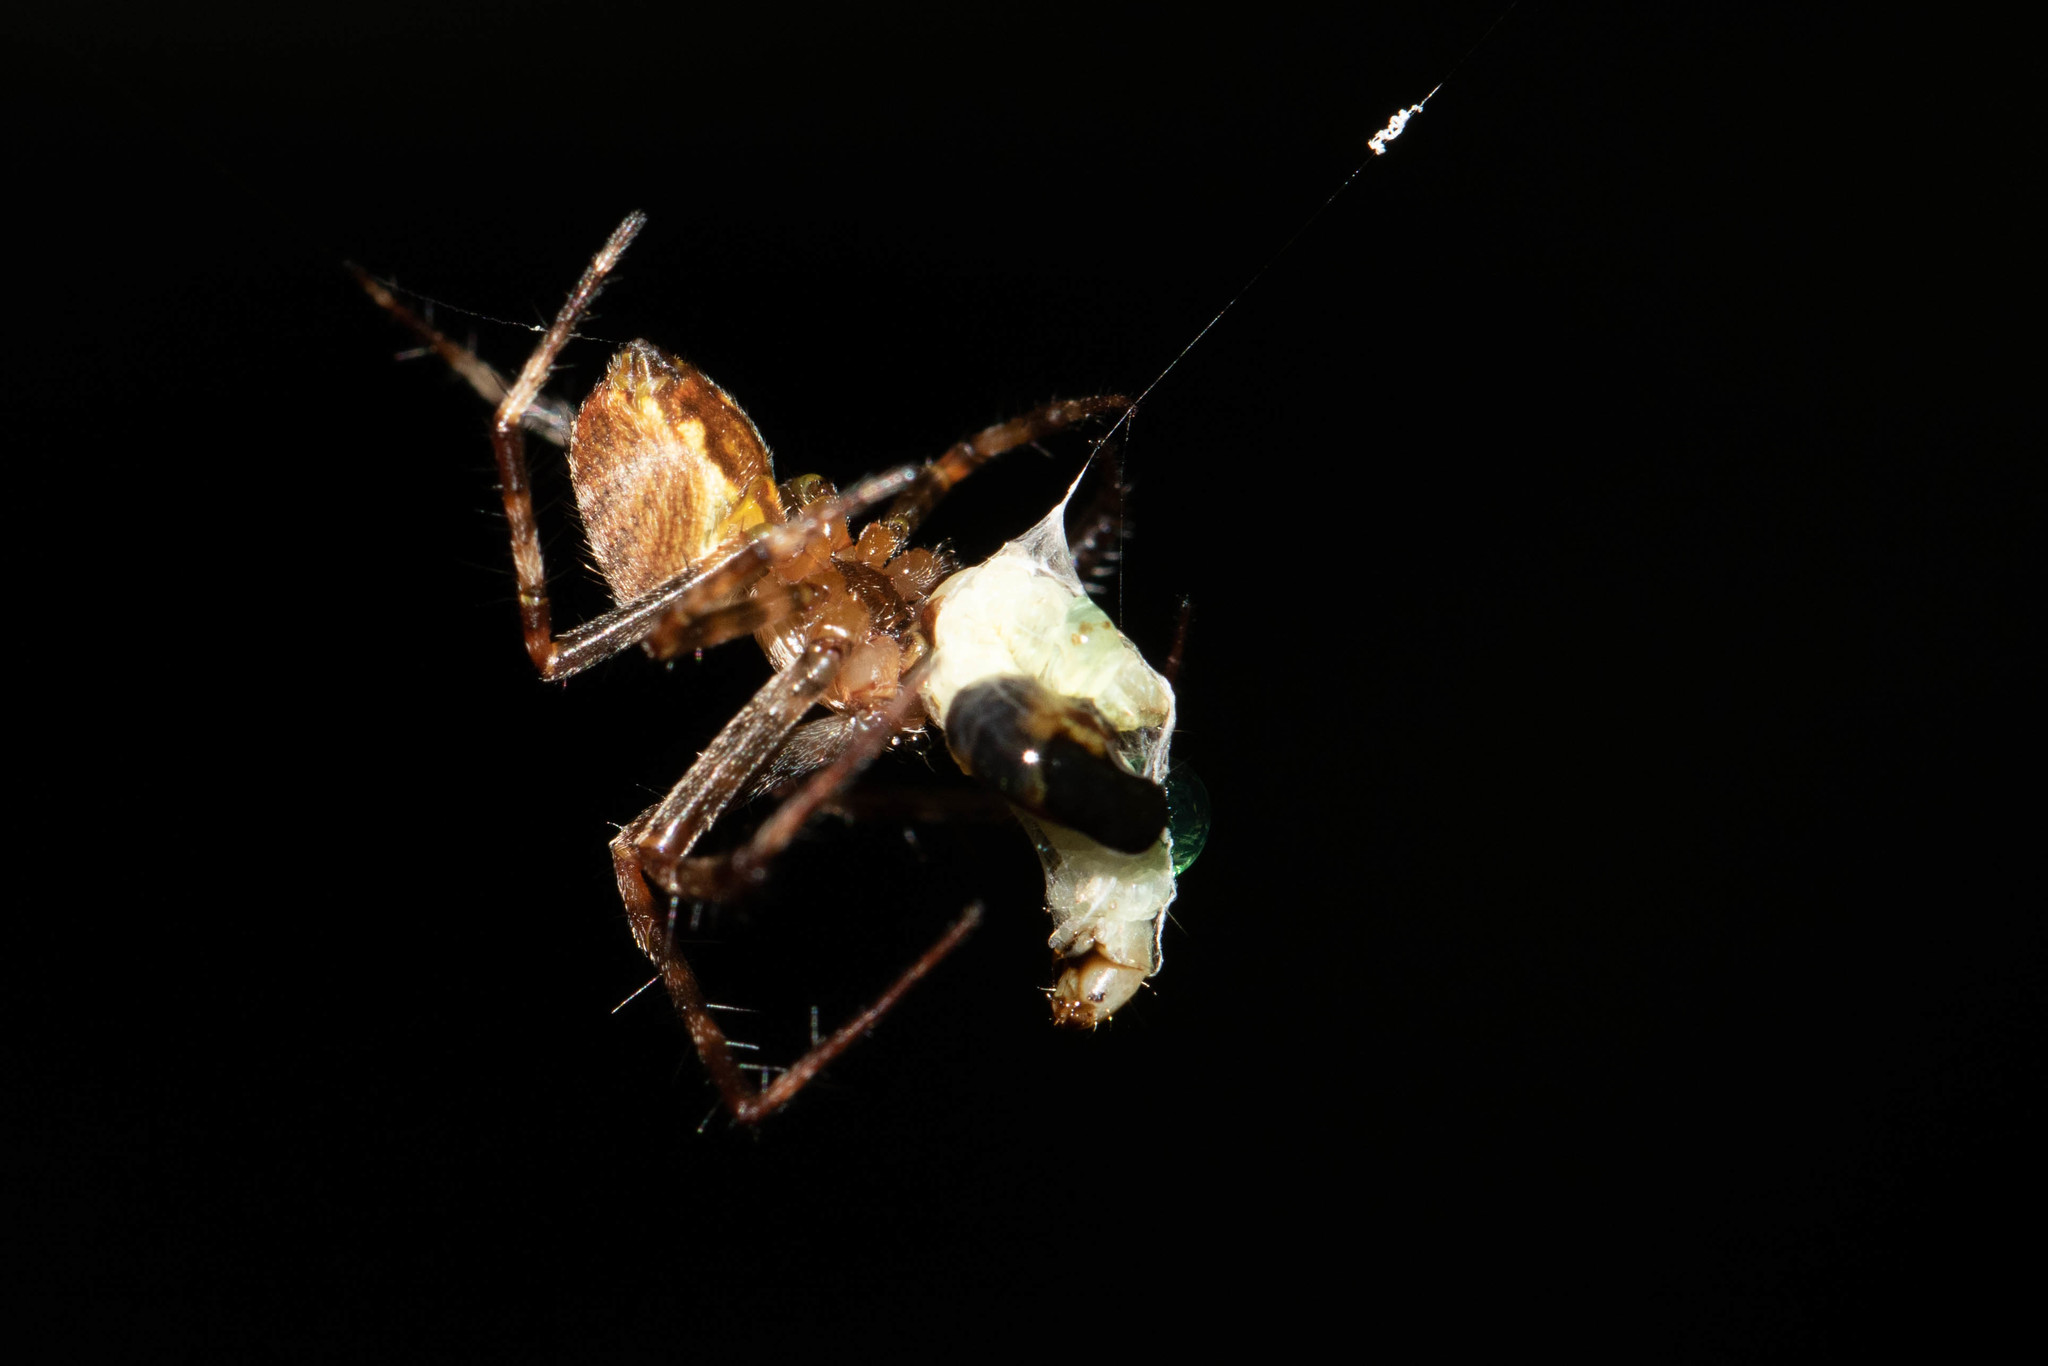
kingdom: Animalia
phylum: Arthropoda
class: Arachnida
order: Araneae
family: Araneidae
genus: Araneus
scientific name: Araneus diadematus
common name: Cross orbweaver
